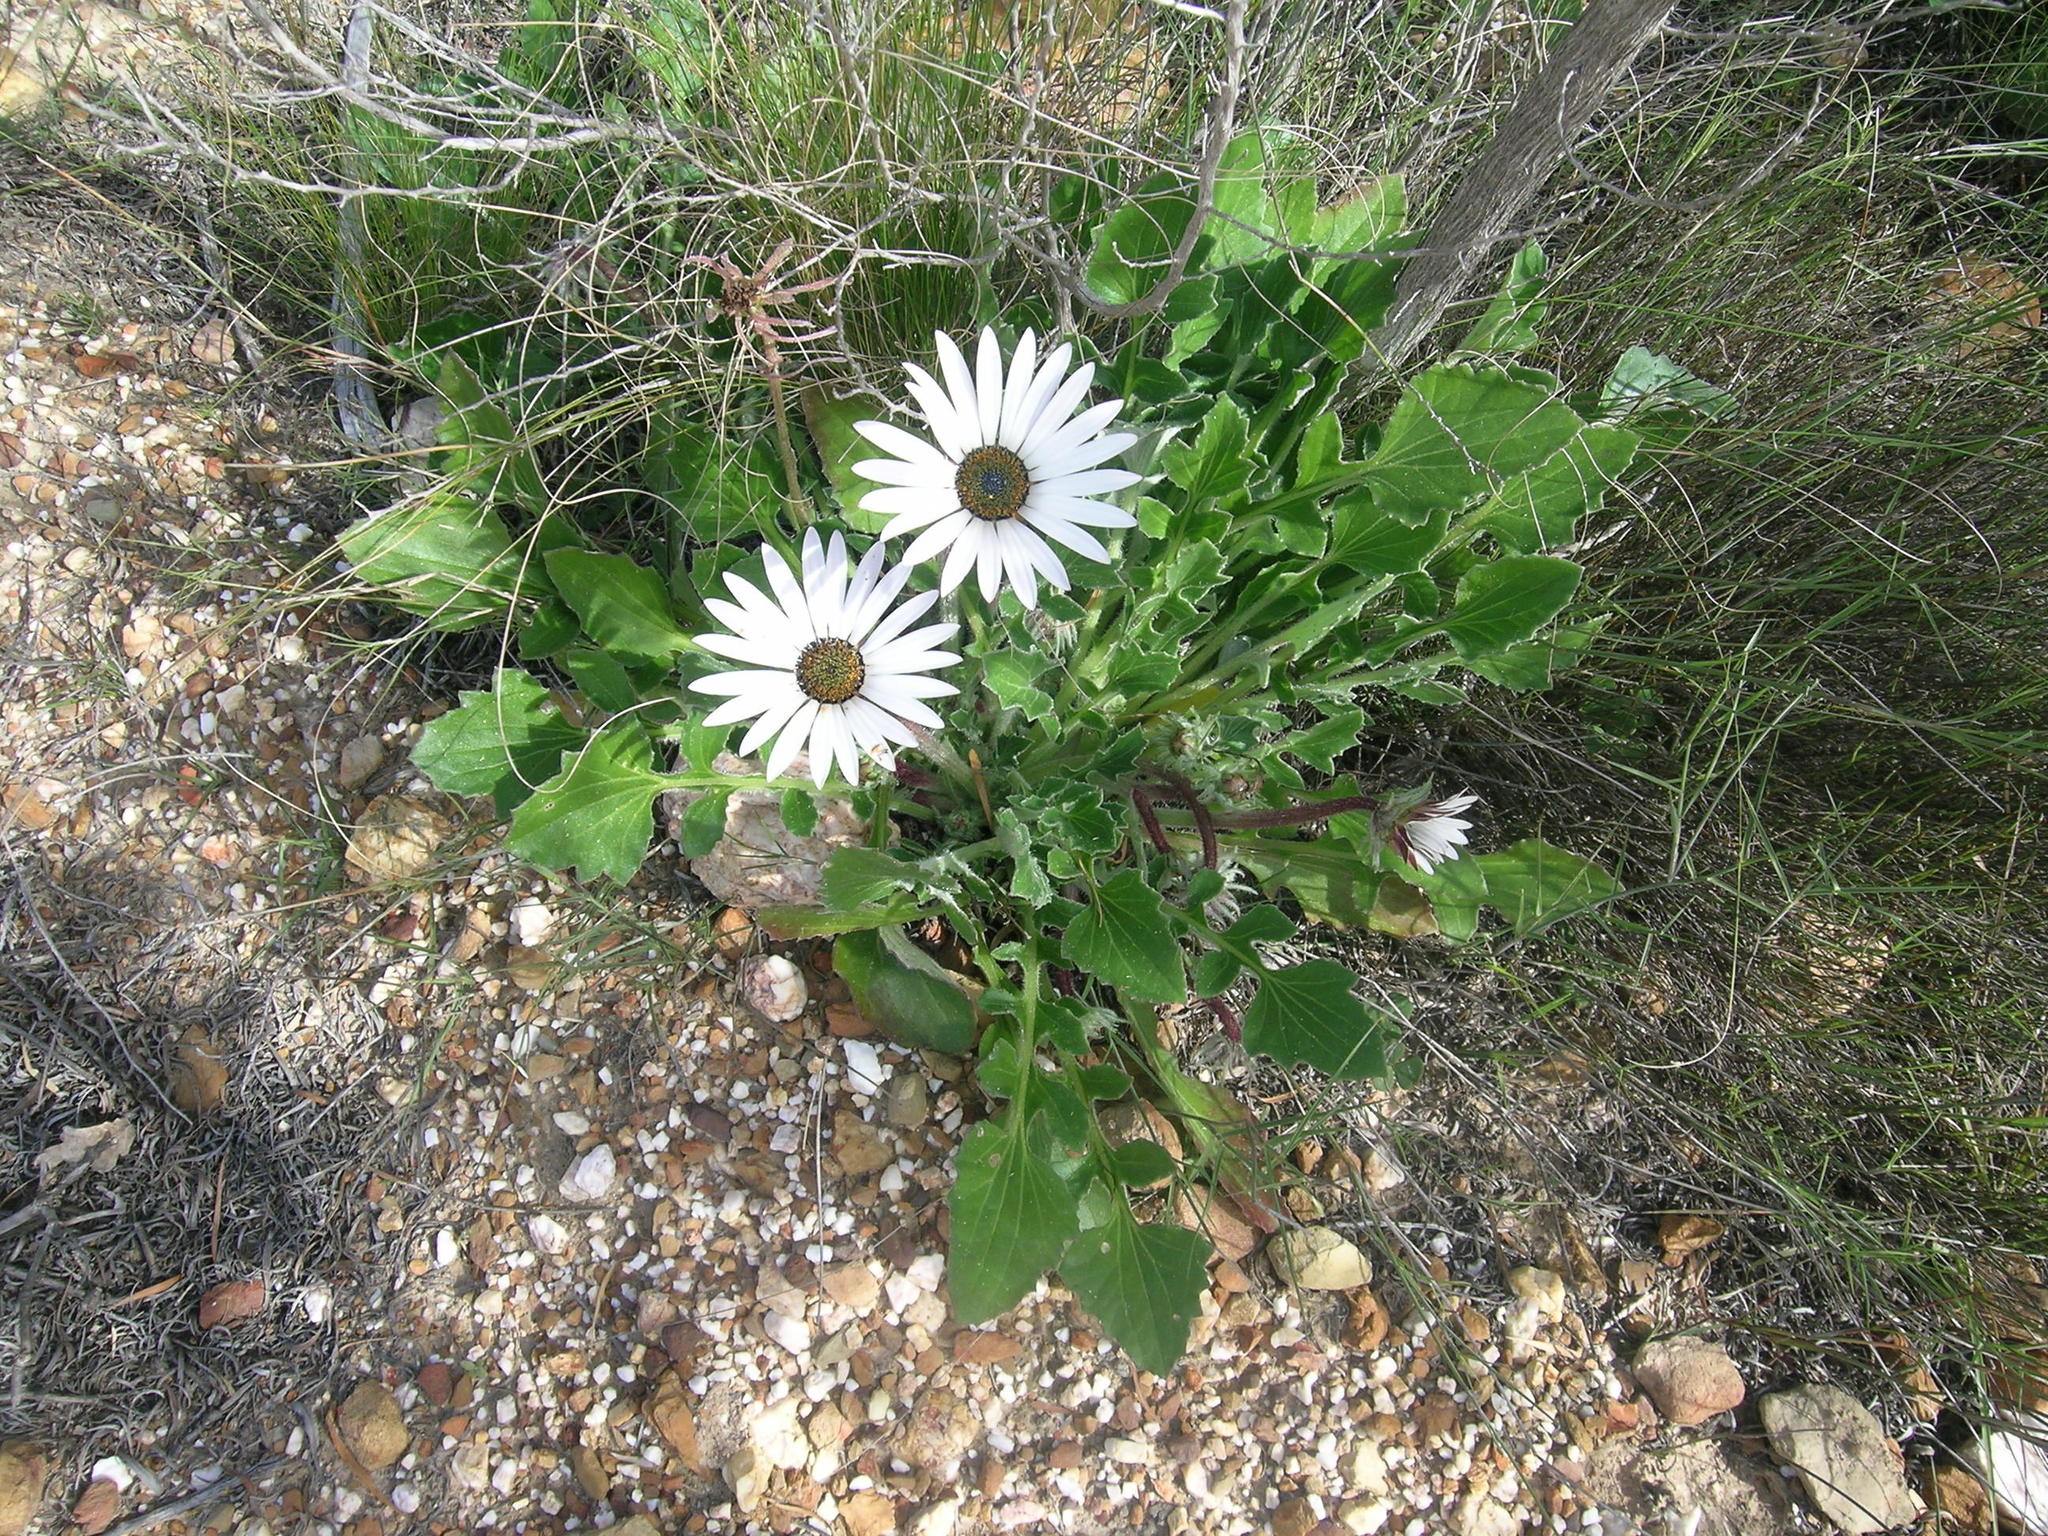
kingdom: Plantae
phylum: Tracheophyta
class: Magnoliopsida
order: Asterales
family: Asteraceae
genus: Arctotis
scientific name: Arctotis incisa
